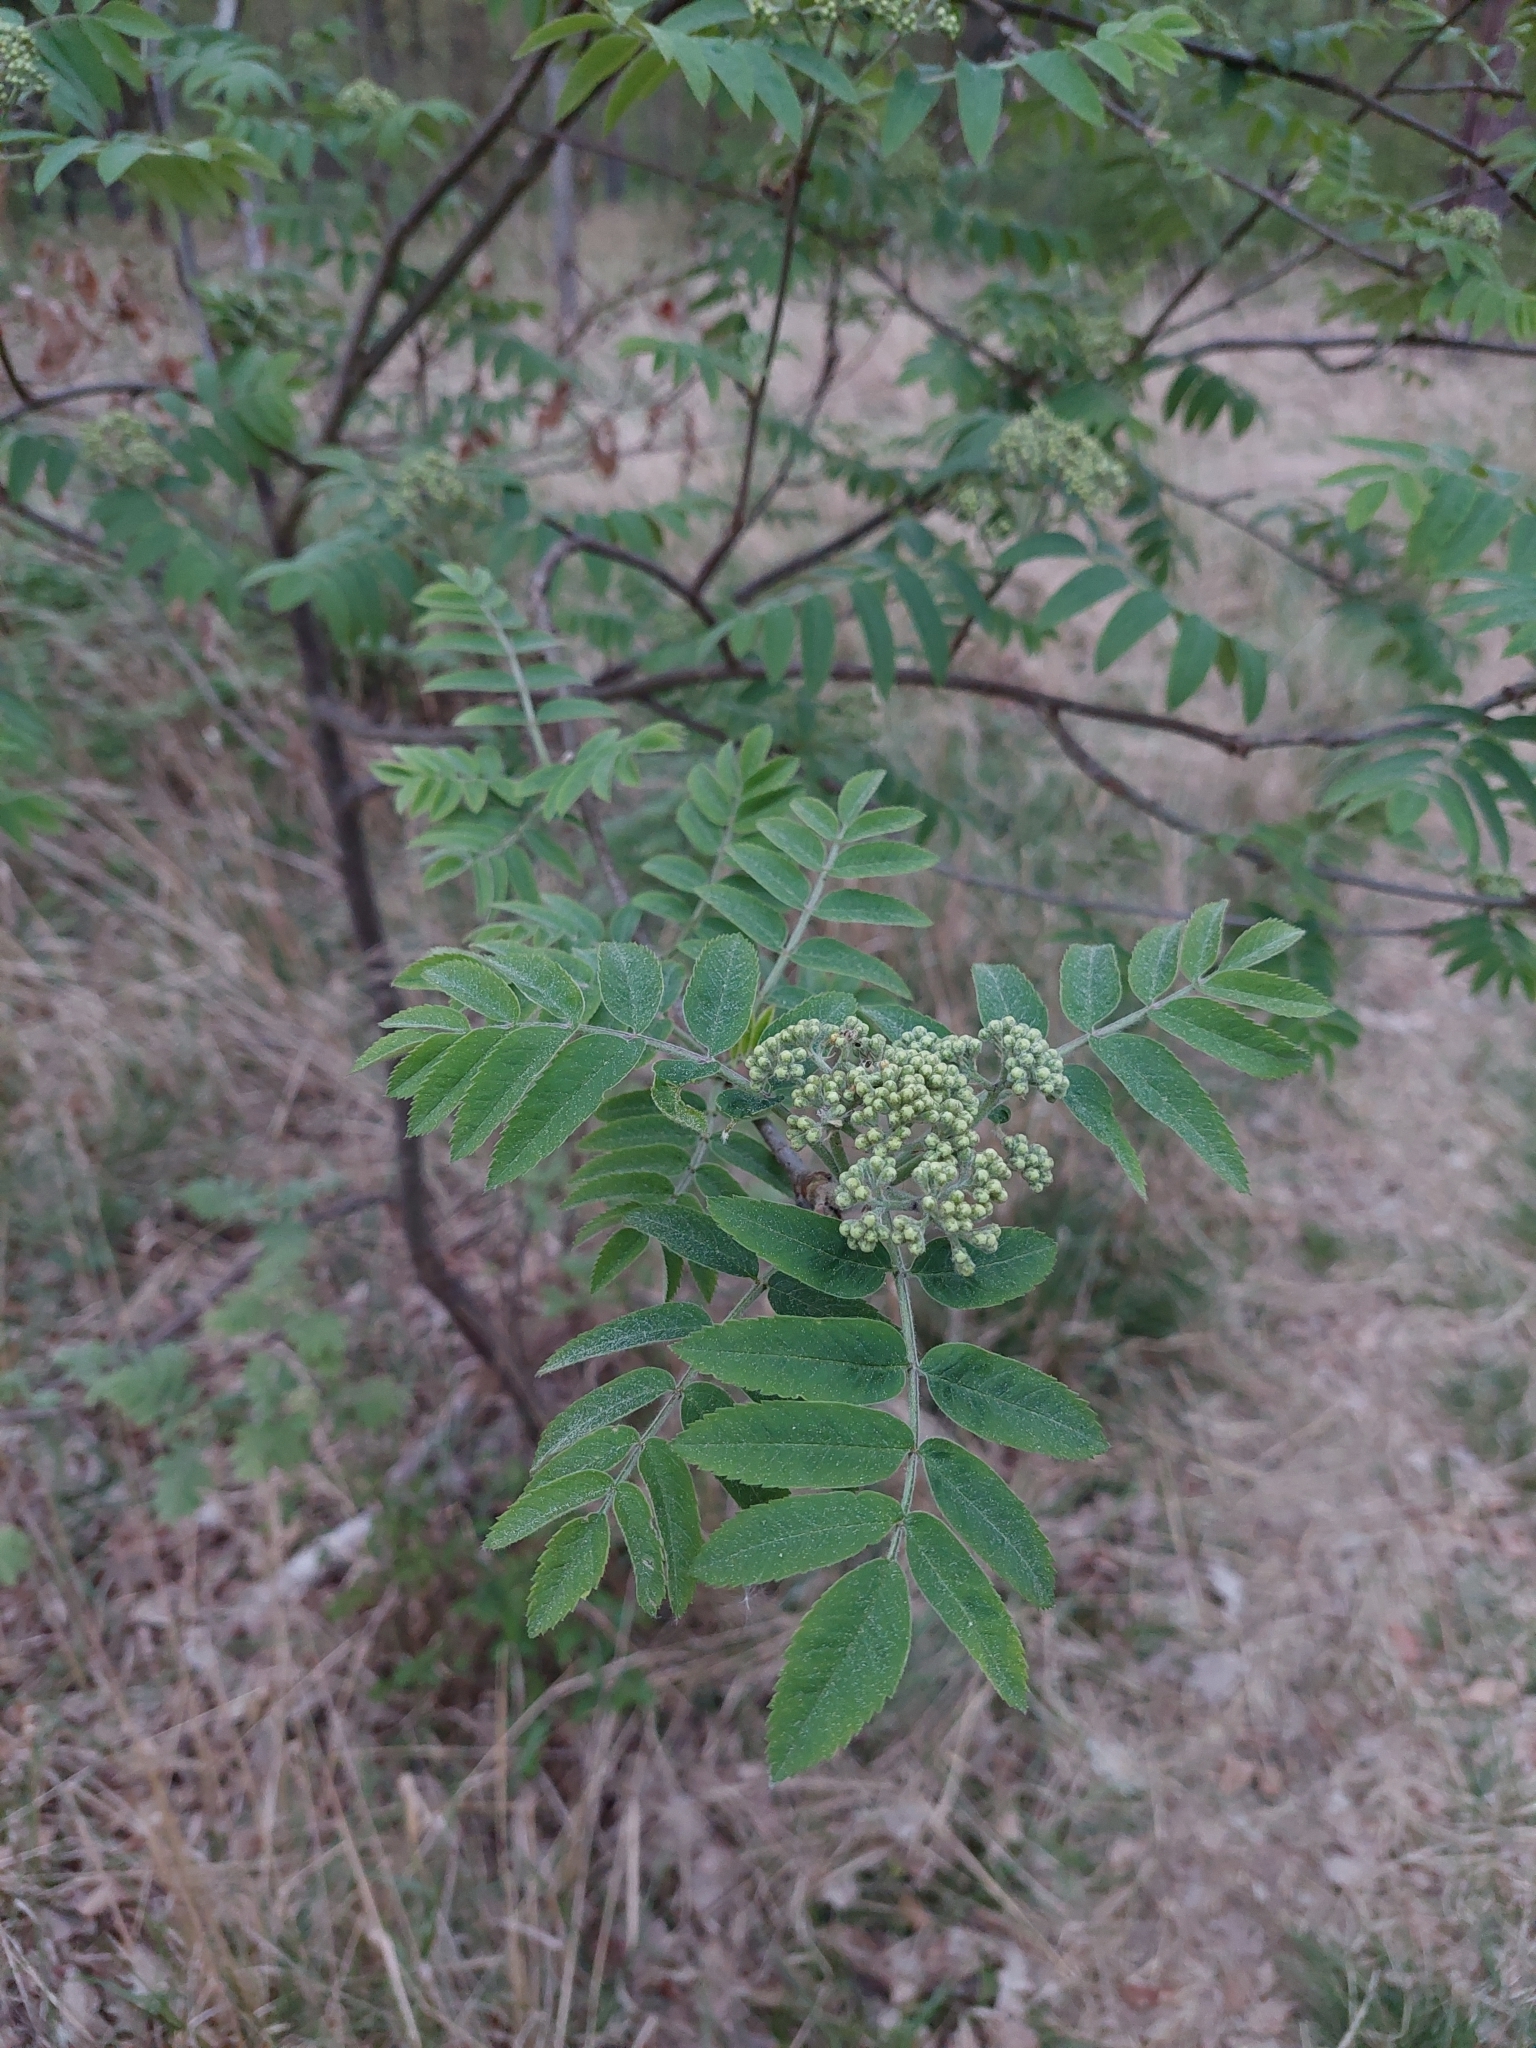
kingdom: Plantae
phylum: Tracheophyta
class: Magnoliopsida
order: Rosales
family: Rosaceae
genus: Sorbus
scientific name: Sorbus aucuparia
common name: Rowan
